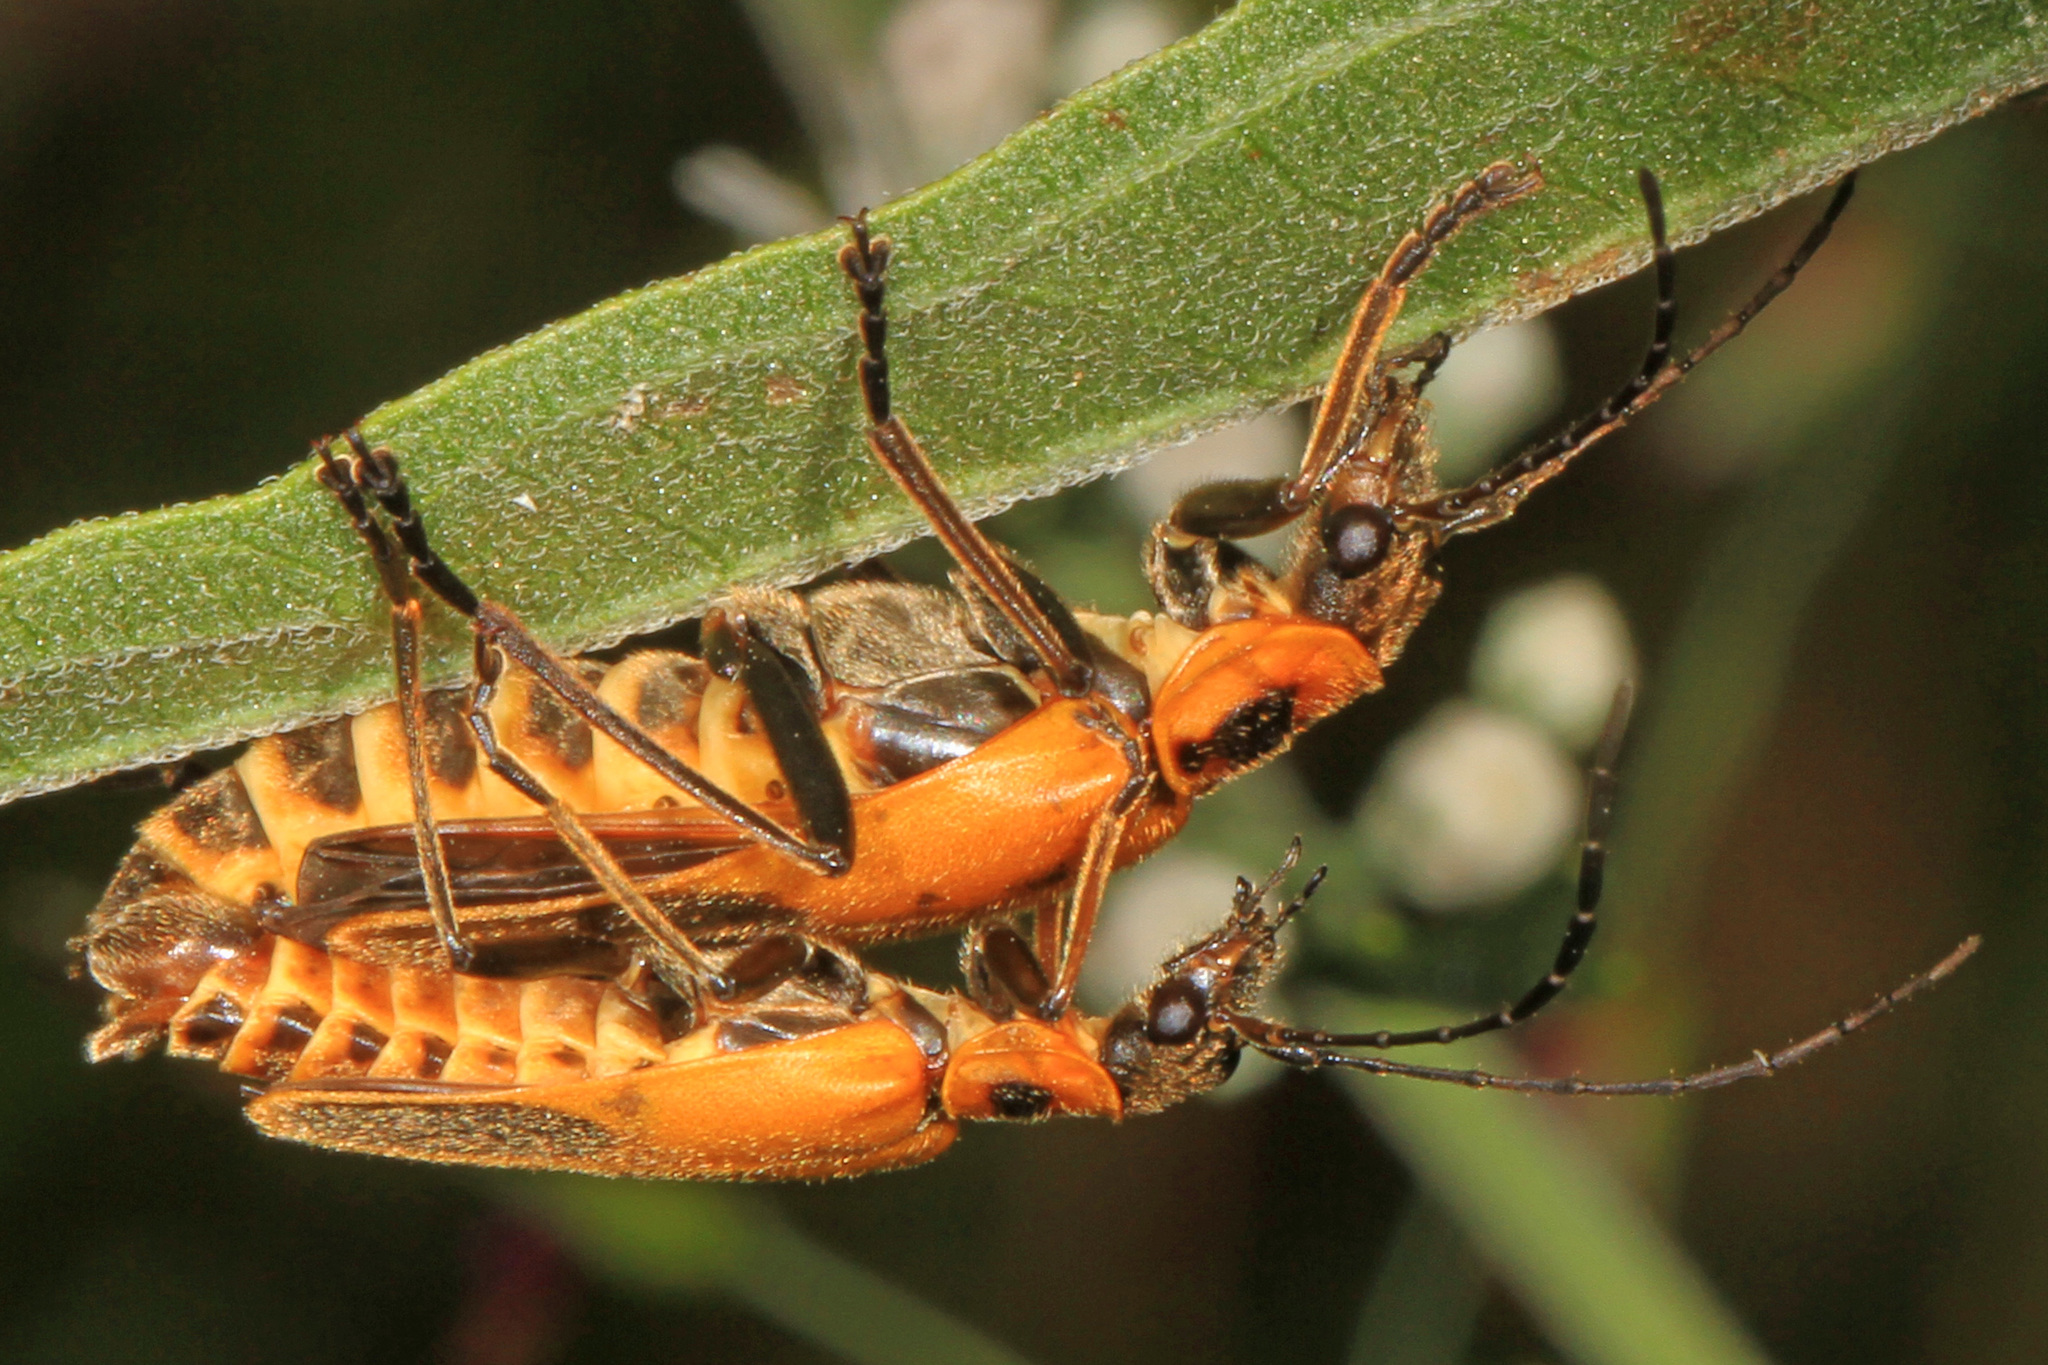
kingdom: Animalia
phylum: Arthropoda
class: Insecta
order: Coleoptera
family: Cantharidae
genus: Chauliognathus
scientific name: Chauliognathus pensylvanicus
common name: Goldenrod soldier beetle
